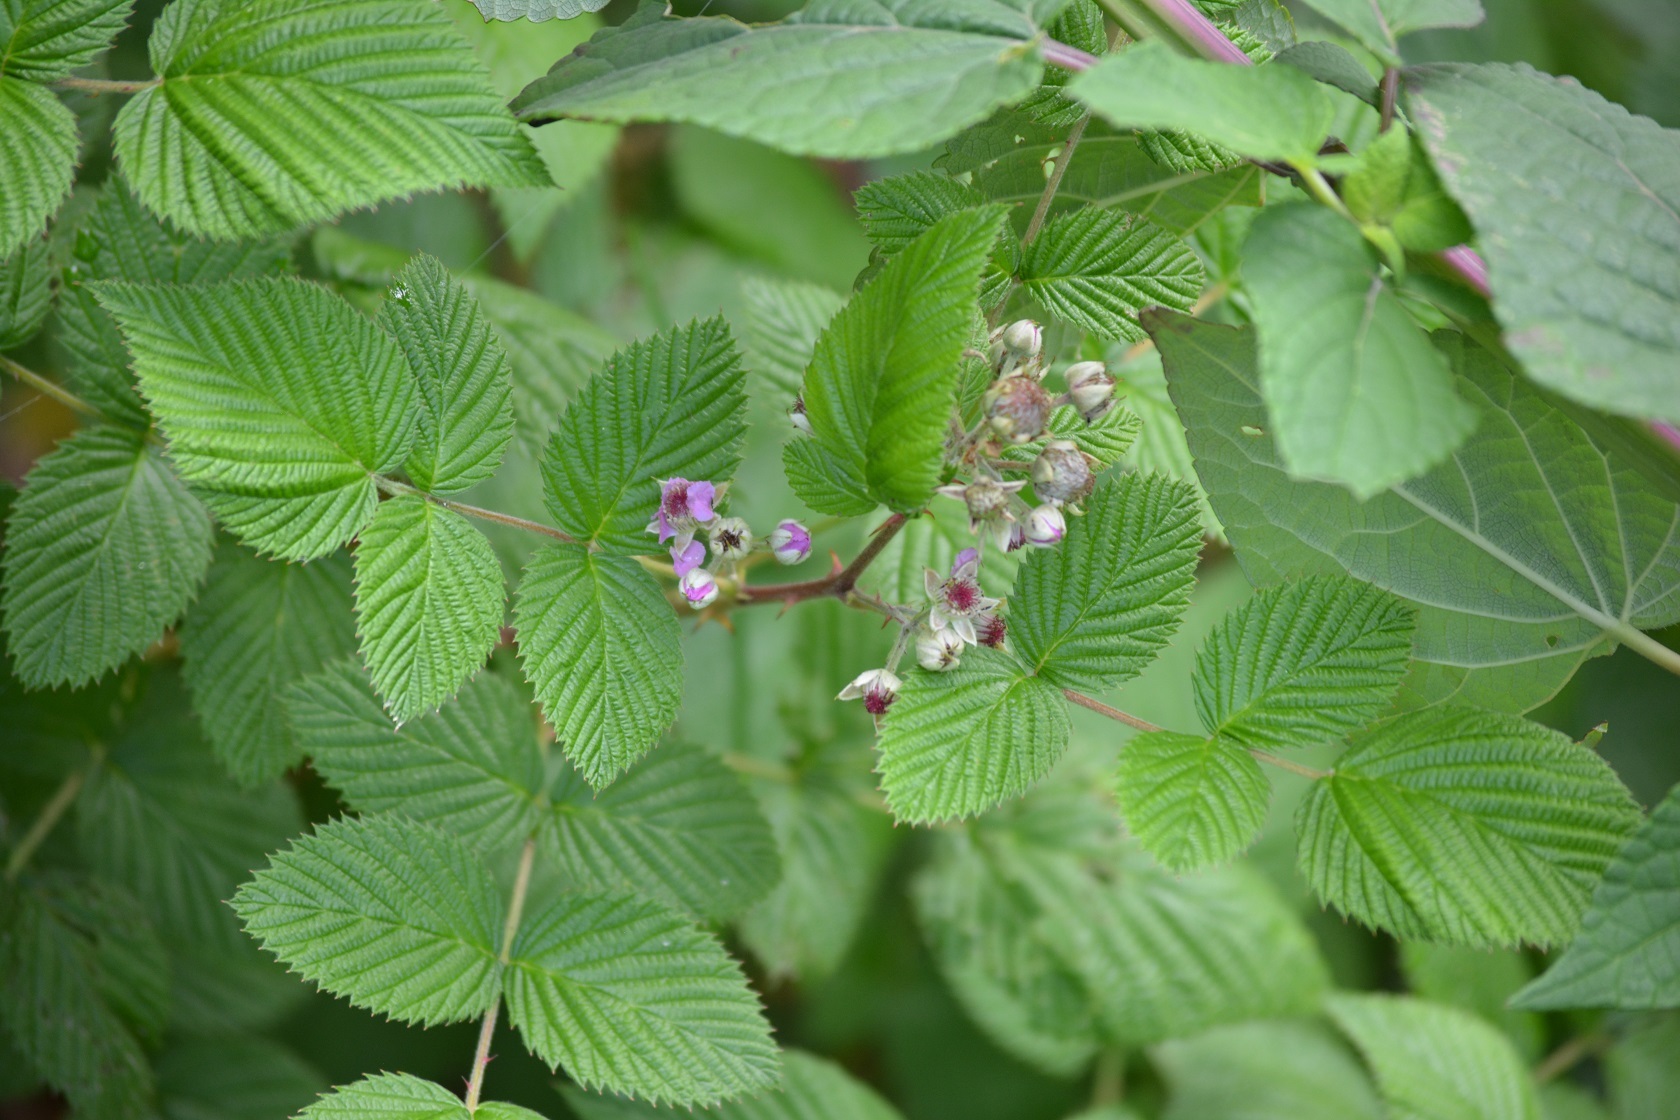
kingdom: Plantae
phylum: Tracheophyta
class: Magnoliopsida
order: Rosales
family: Rosaceae
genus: Rubus
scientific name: Rubus niveus
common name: Snowpeaks raspberry
